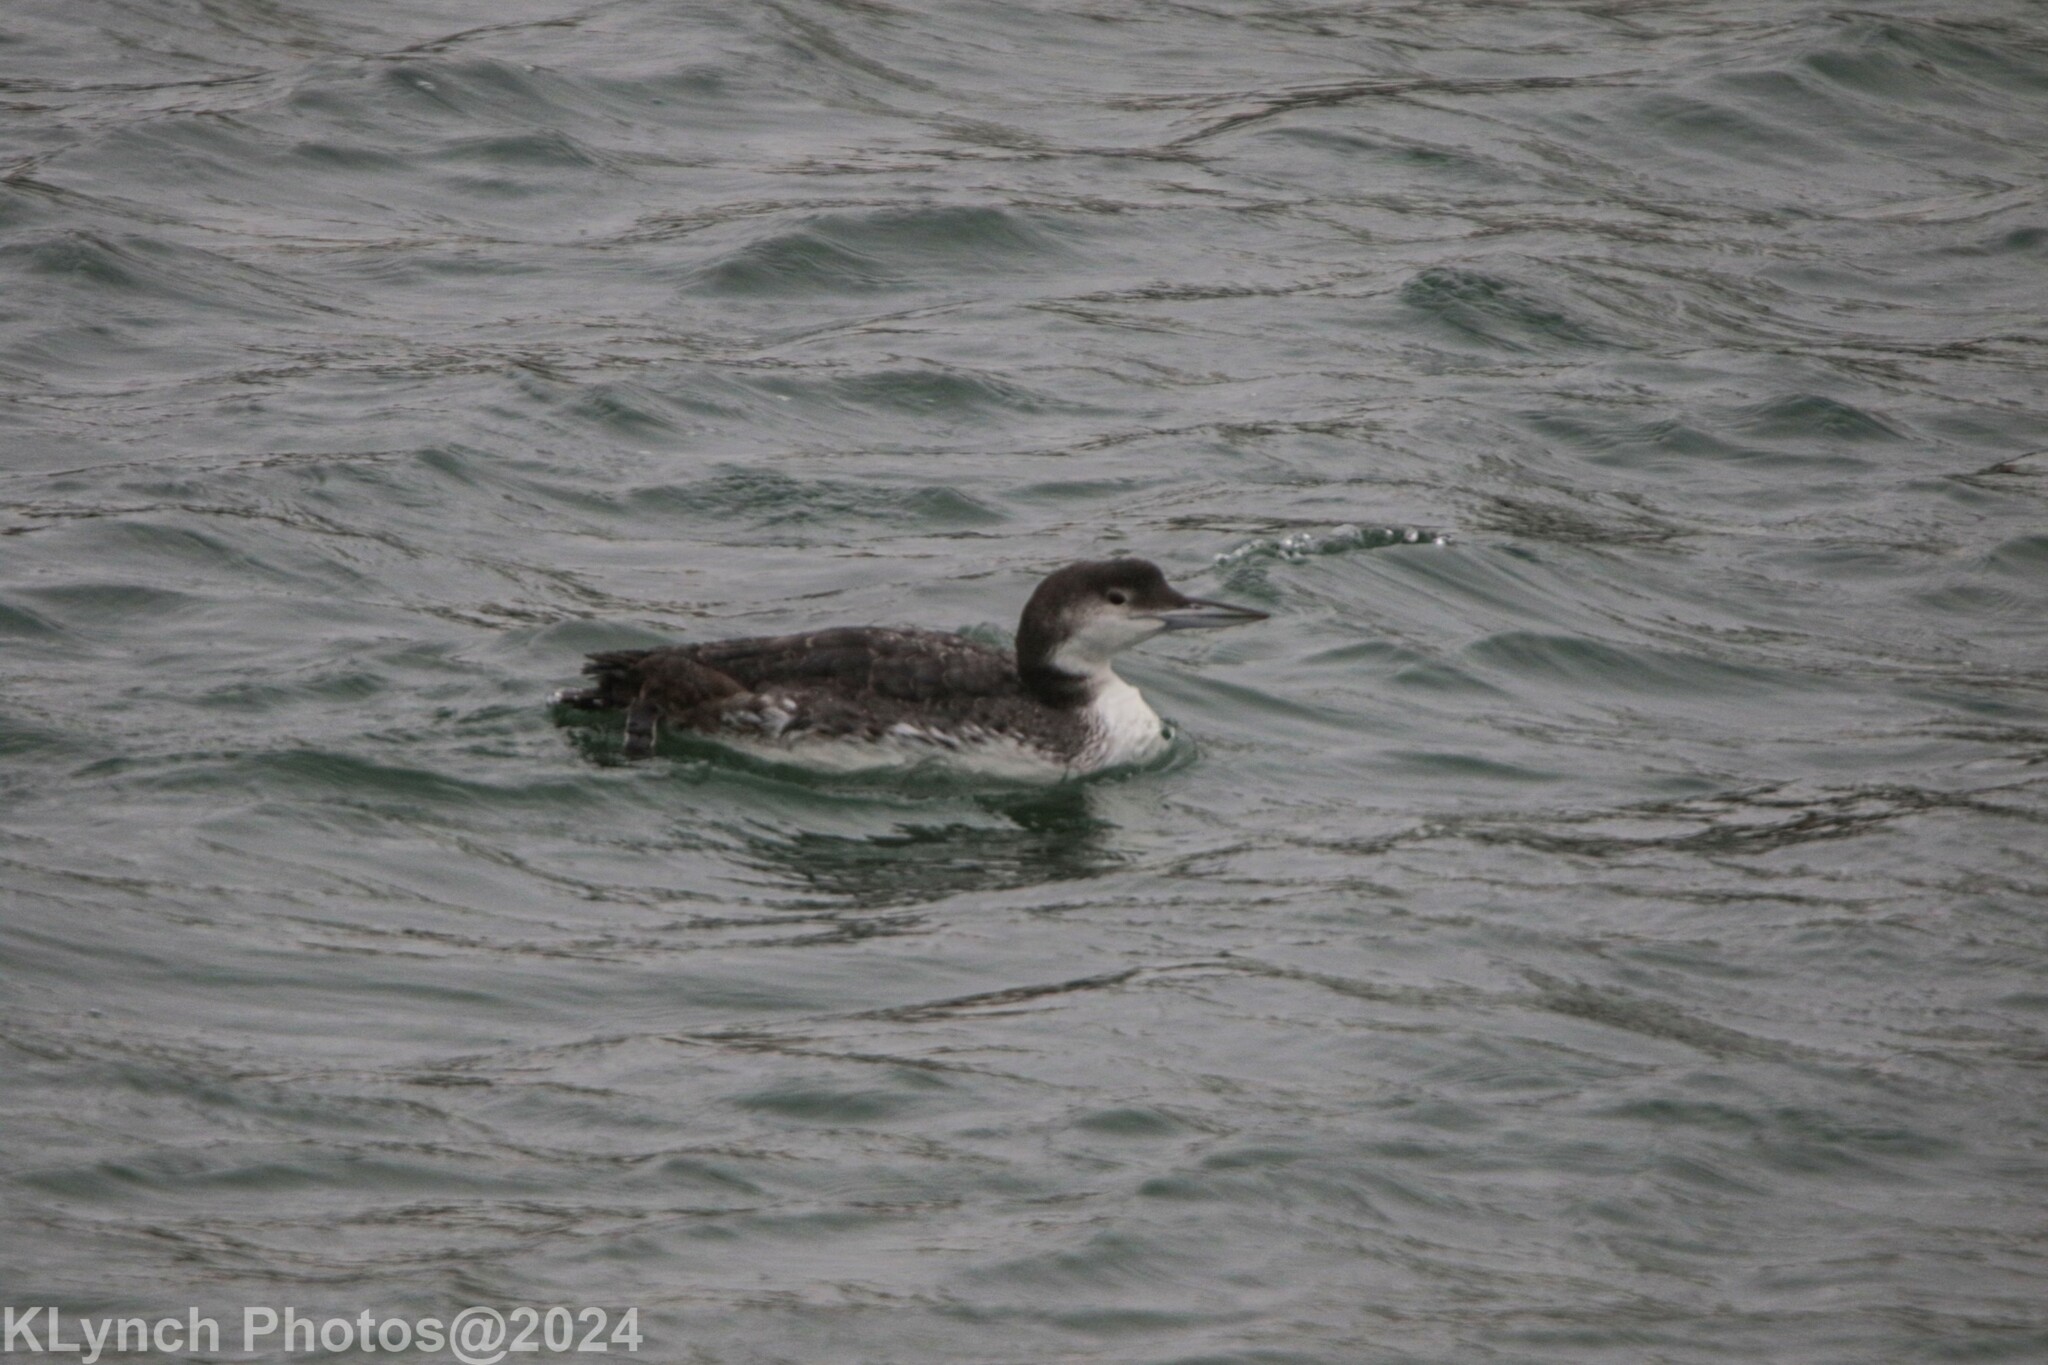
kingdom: Animalia
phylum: Chordata
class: Aves
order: Gaviiformes
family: Gaviidae
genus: Gavia
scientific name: Gavia immer
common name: Common loon
